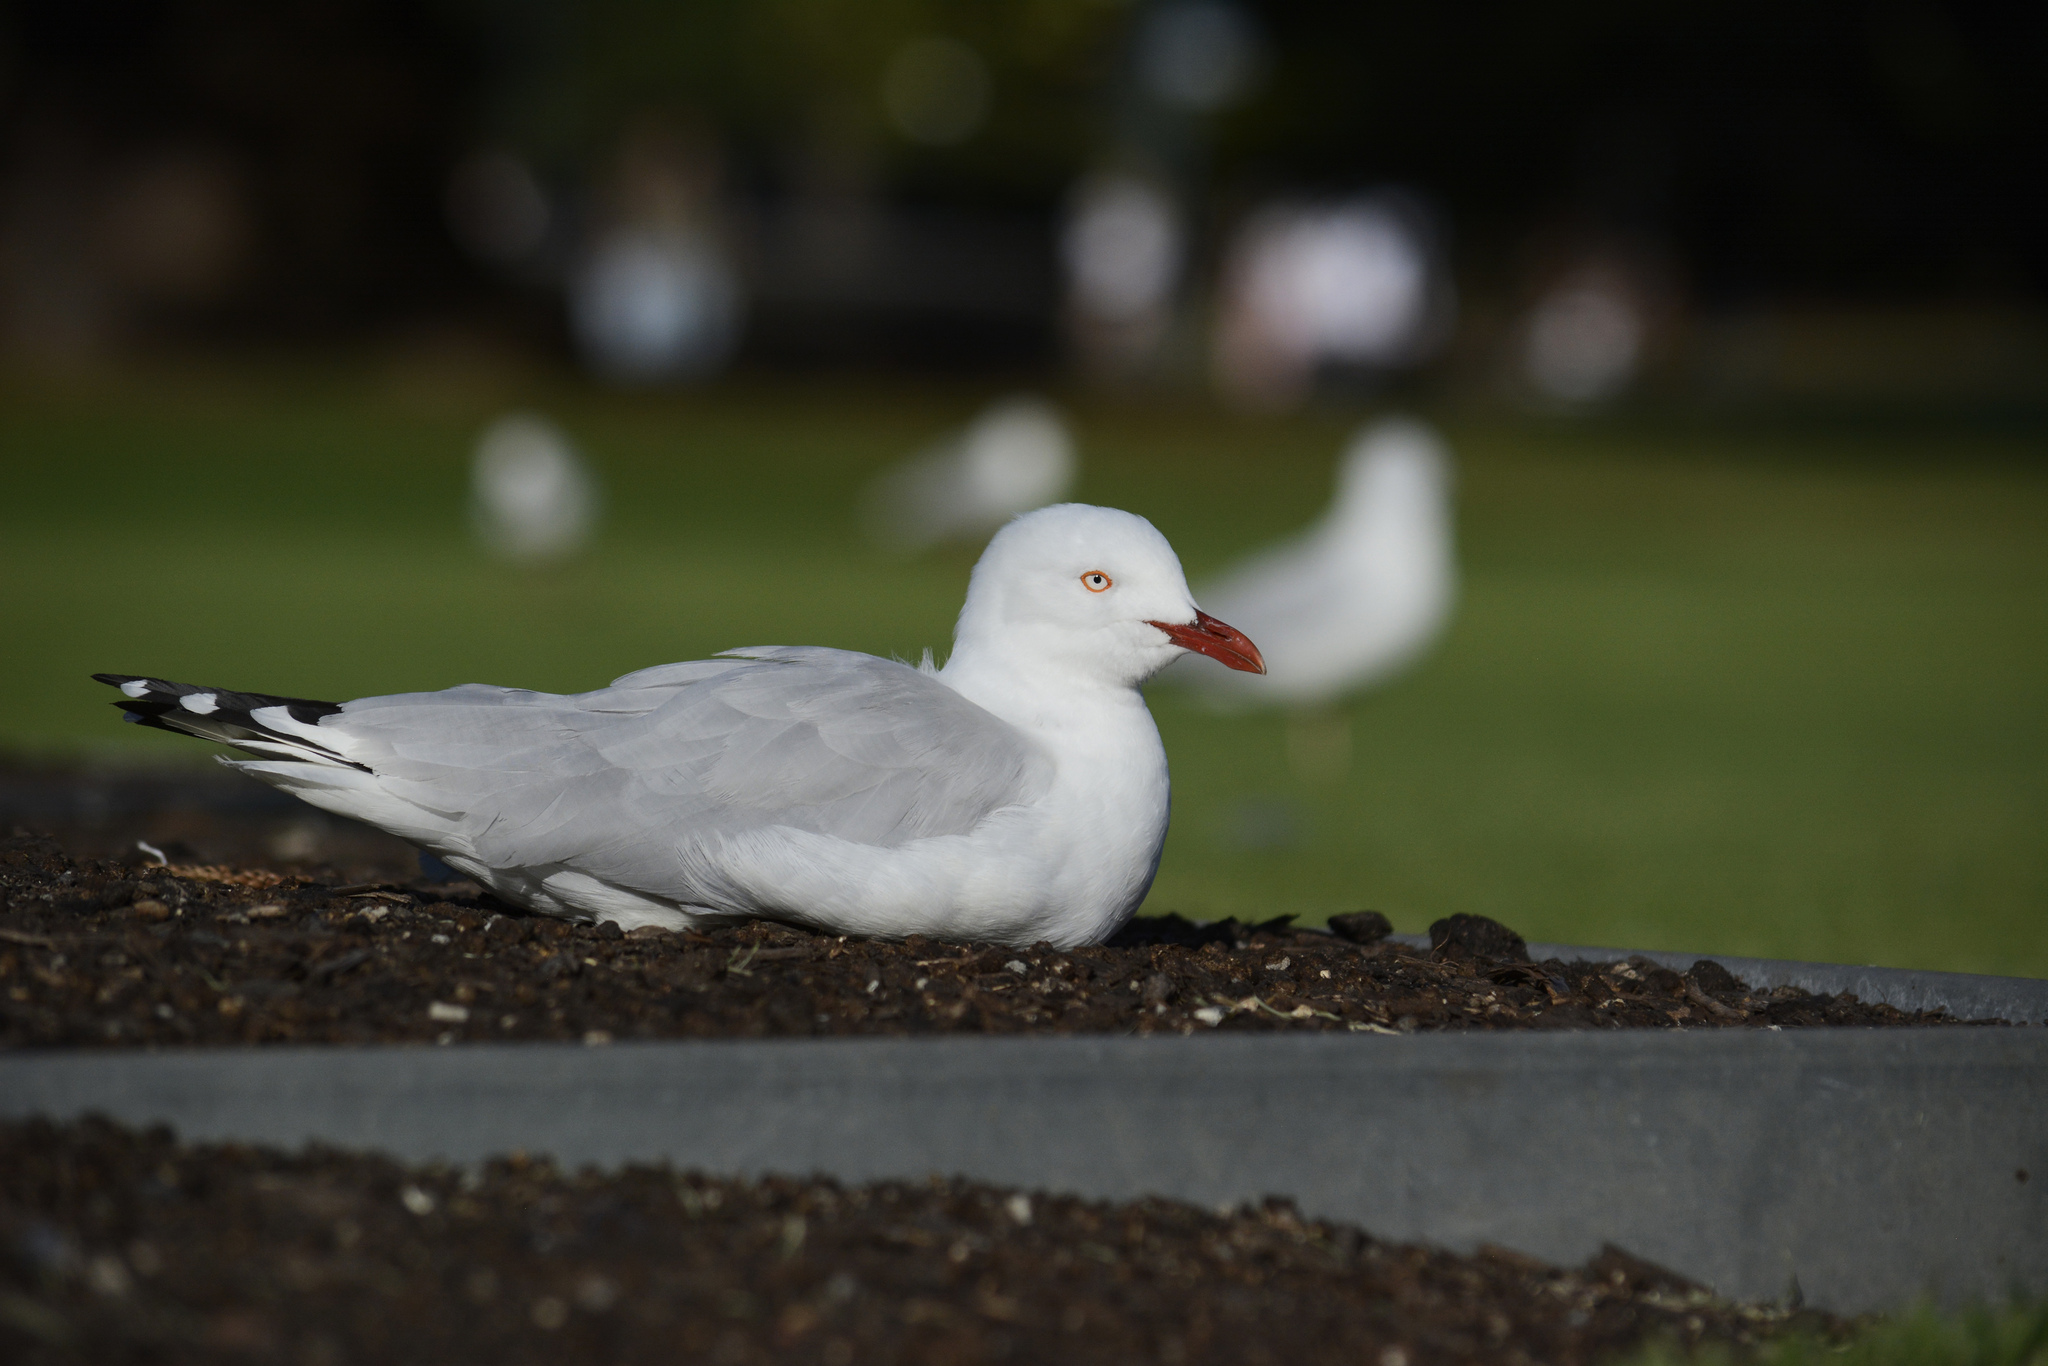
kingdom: Animalia
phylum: Chordata
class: Aves
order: Charadriiformes
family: Laridae
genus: Chroicocephalus
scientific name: Chroicocephalus novaehollandiae
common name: Silver gull
